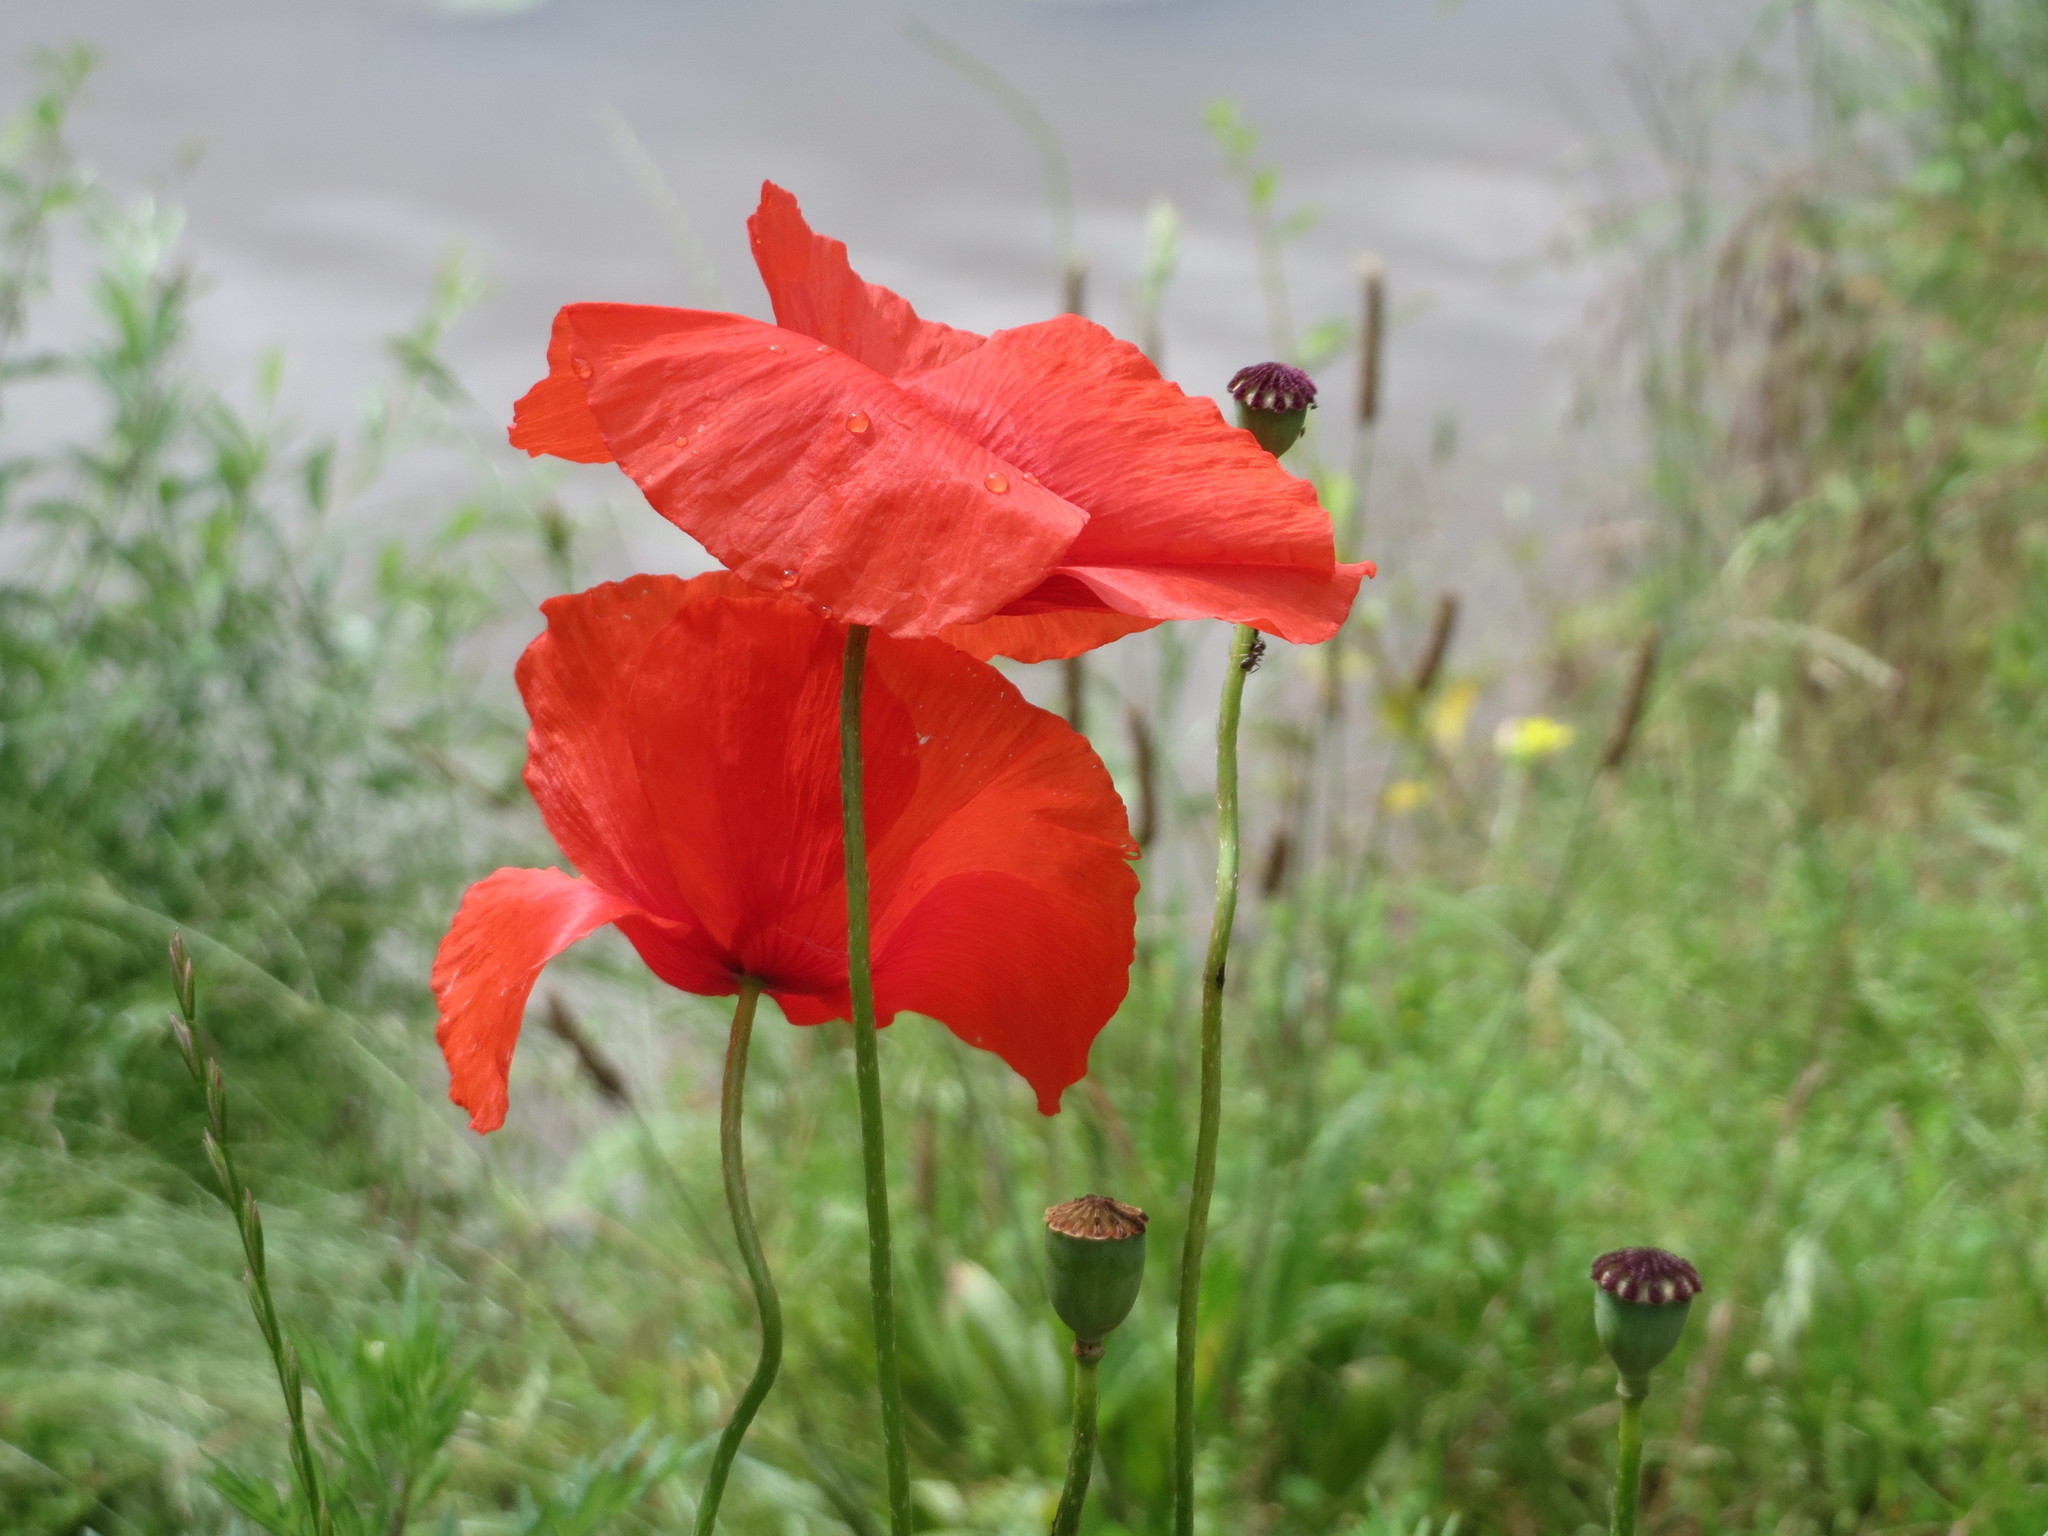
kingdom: Plantae
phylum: Tracheophyta
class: Magnoliopsida
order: Ranunculales
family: Papaveraceae
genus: Papaver
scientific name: Papaver rhoeas
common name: Corn poppy
